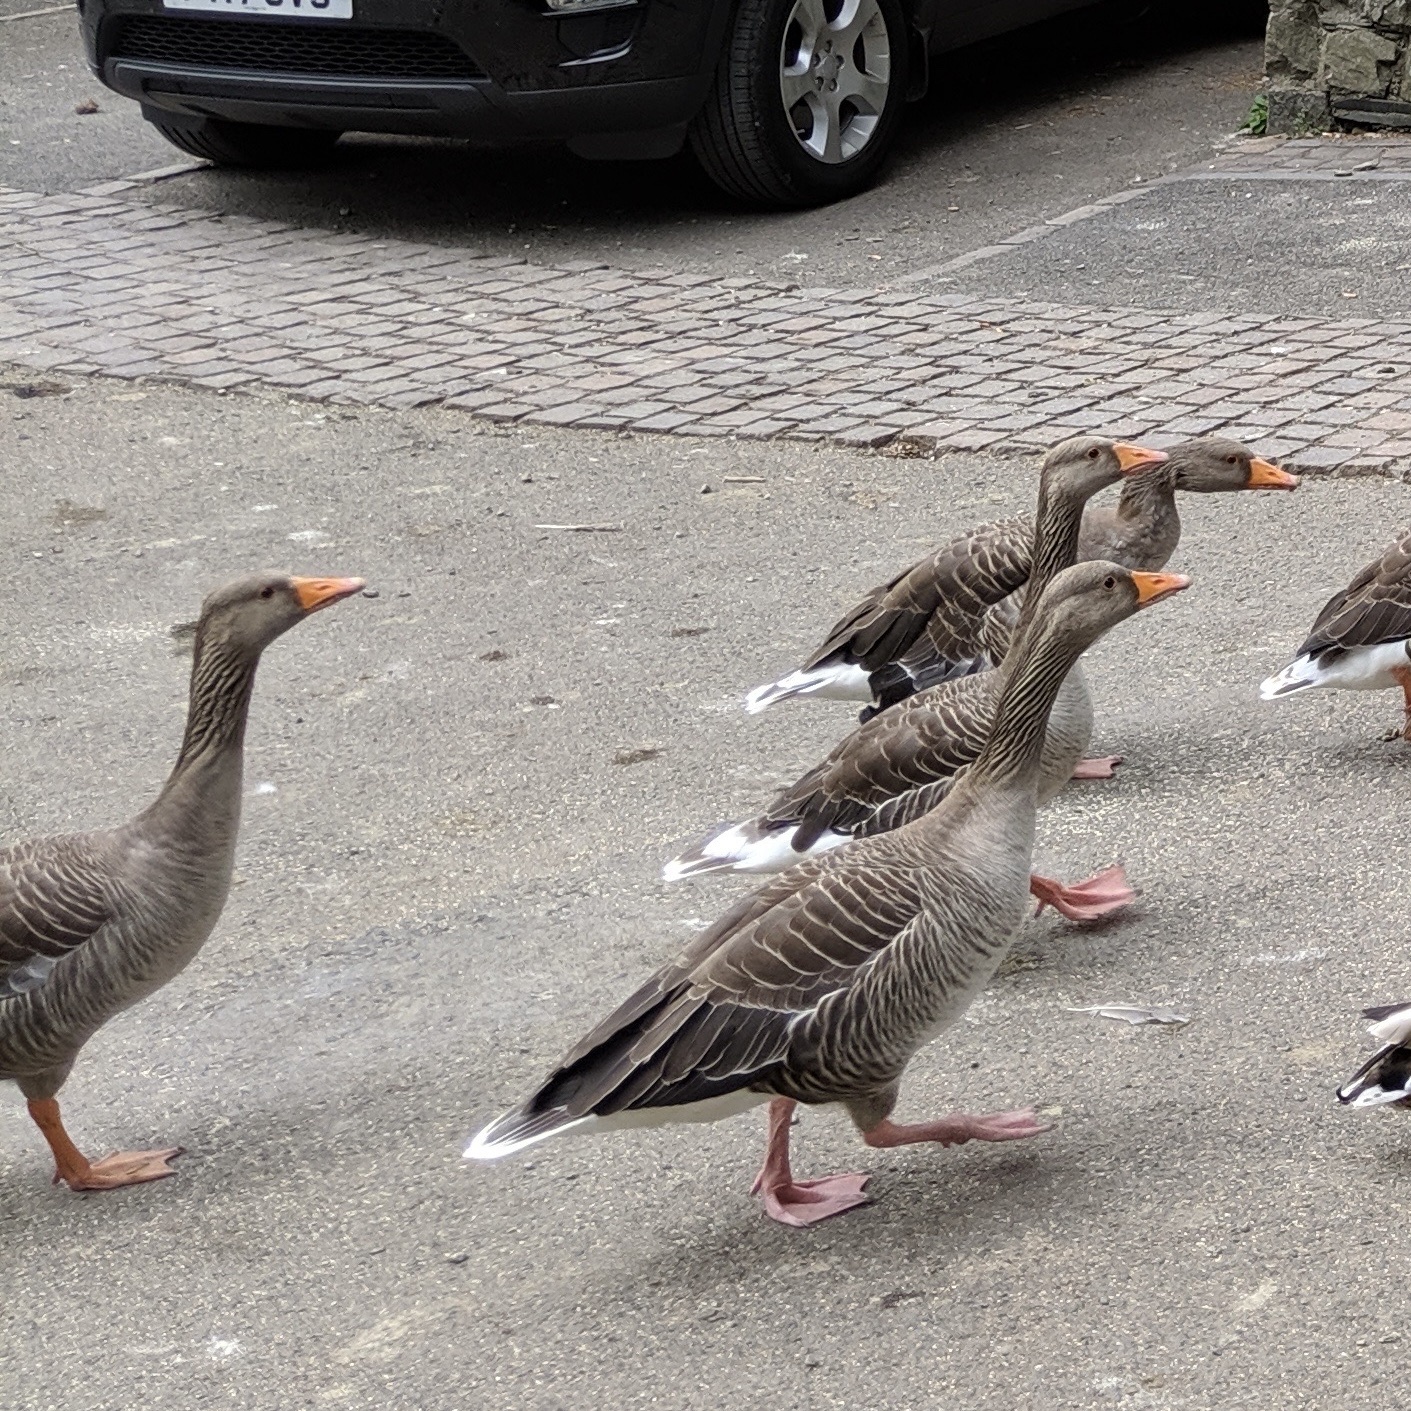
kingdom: Animalia
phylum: Chordata
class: Aves
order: Anseriformes
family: Anatidae
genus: Anser
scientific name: Anser anser
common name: Greylag goose
